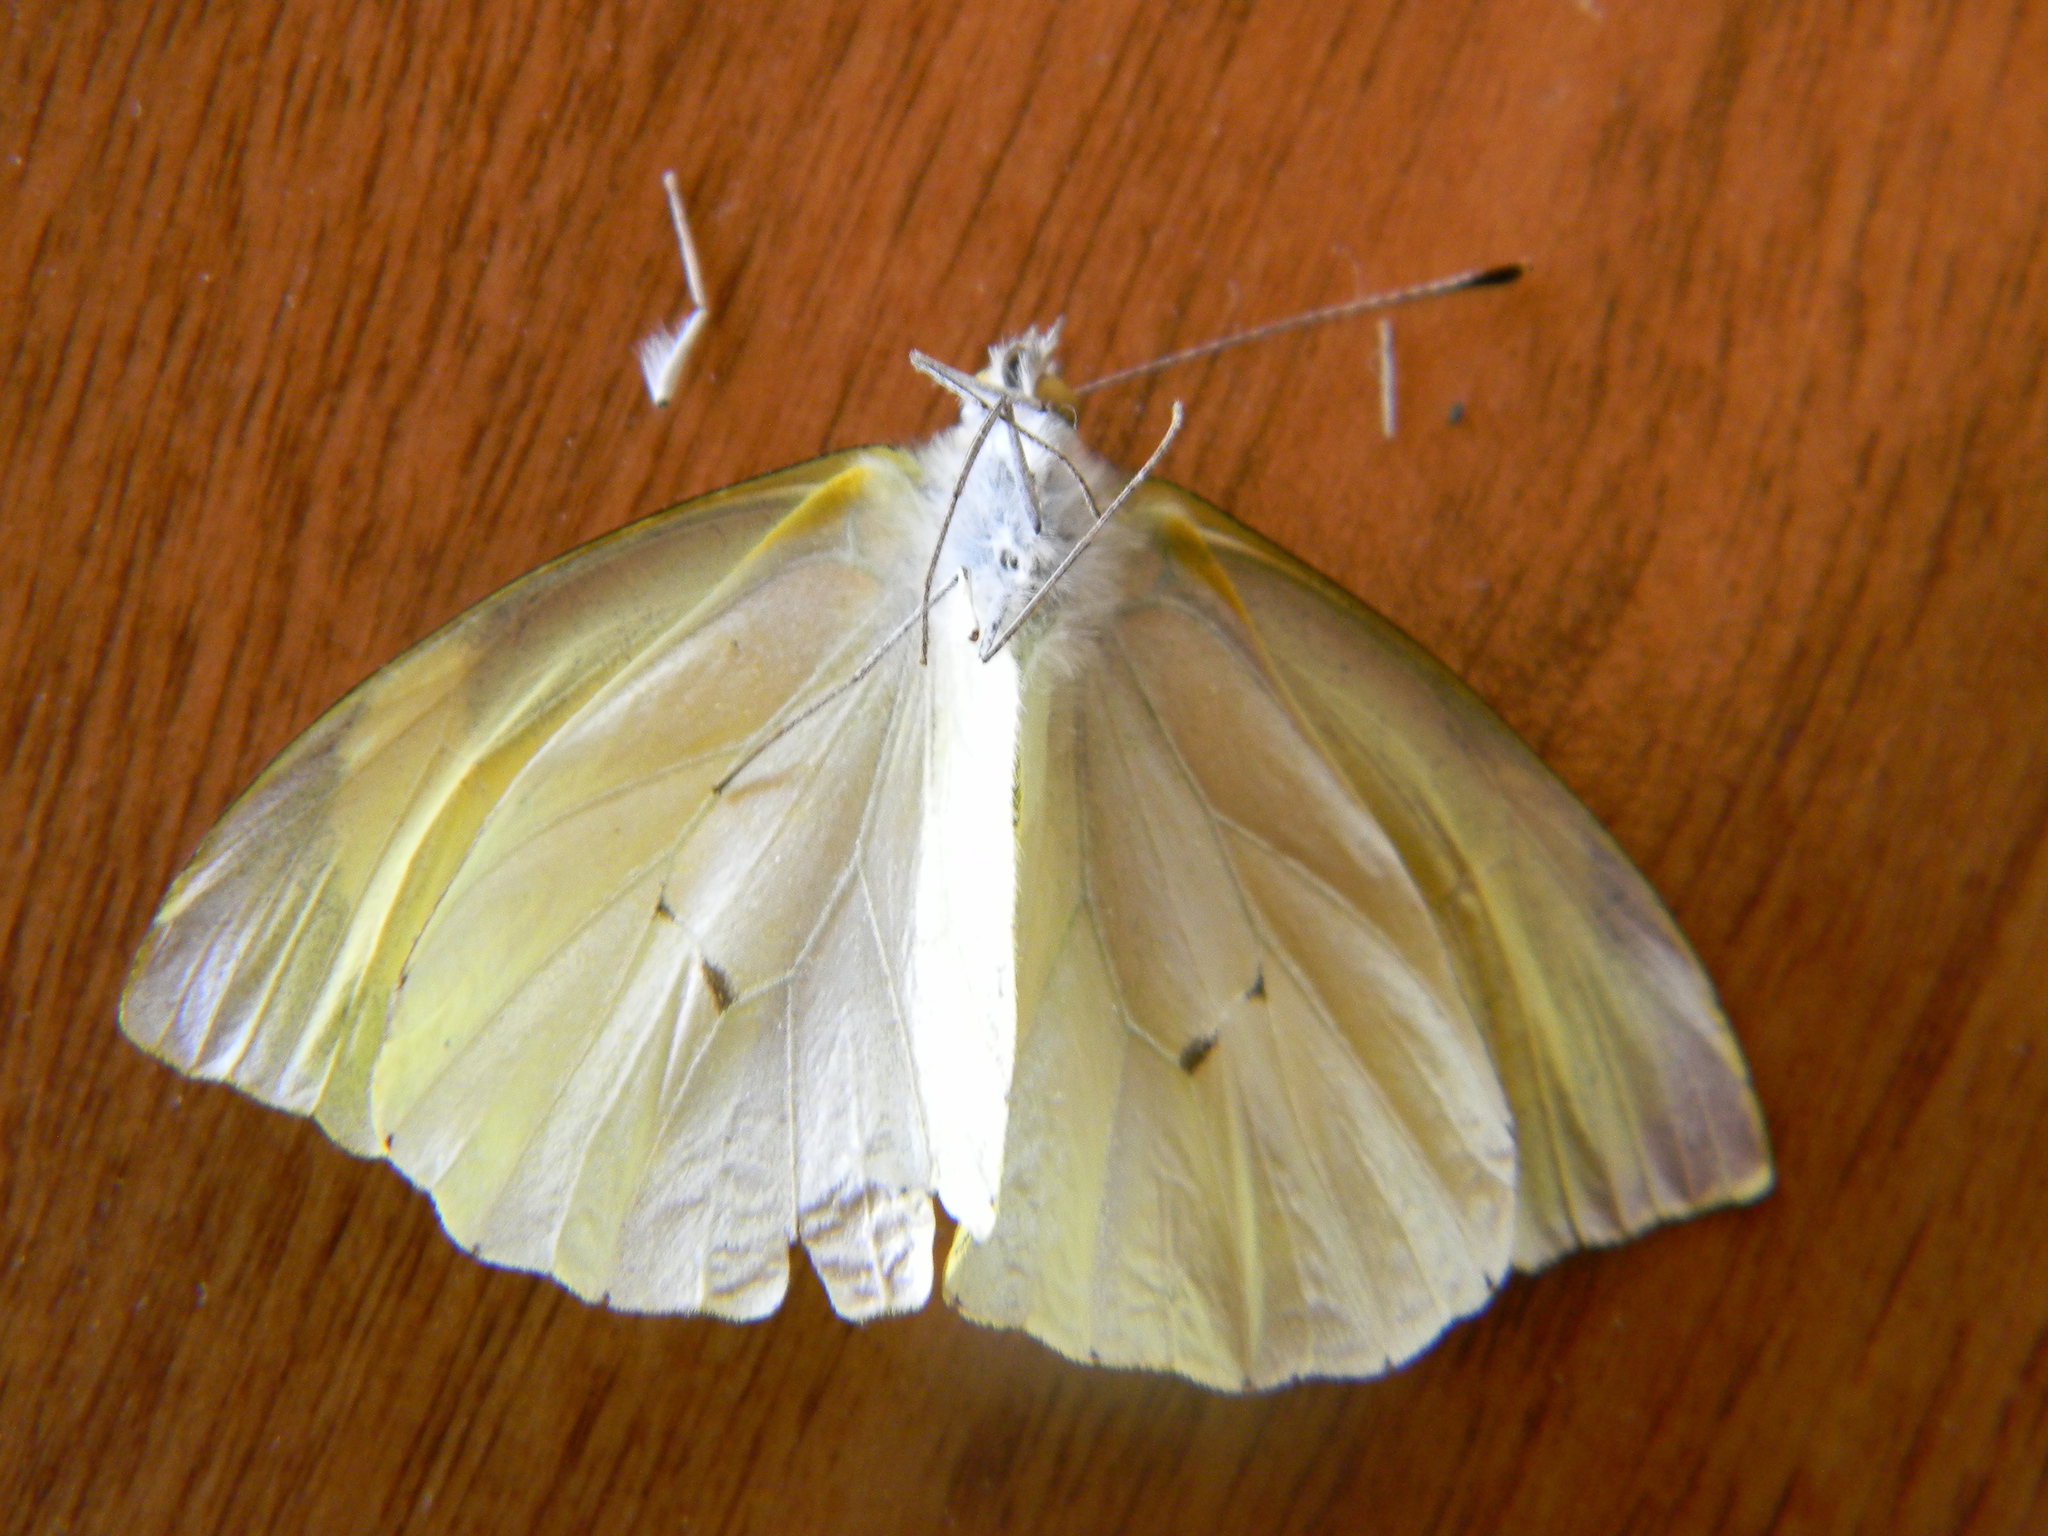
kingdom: Animalia
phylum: Arthropoda
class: Insecta
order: Lepidoptera
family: Pieridae
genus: Leptophobia
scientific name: Leptophobia eleone
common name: Silky wanderer
